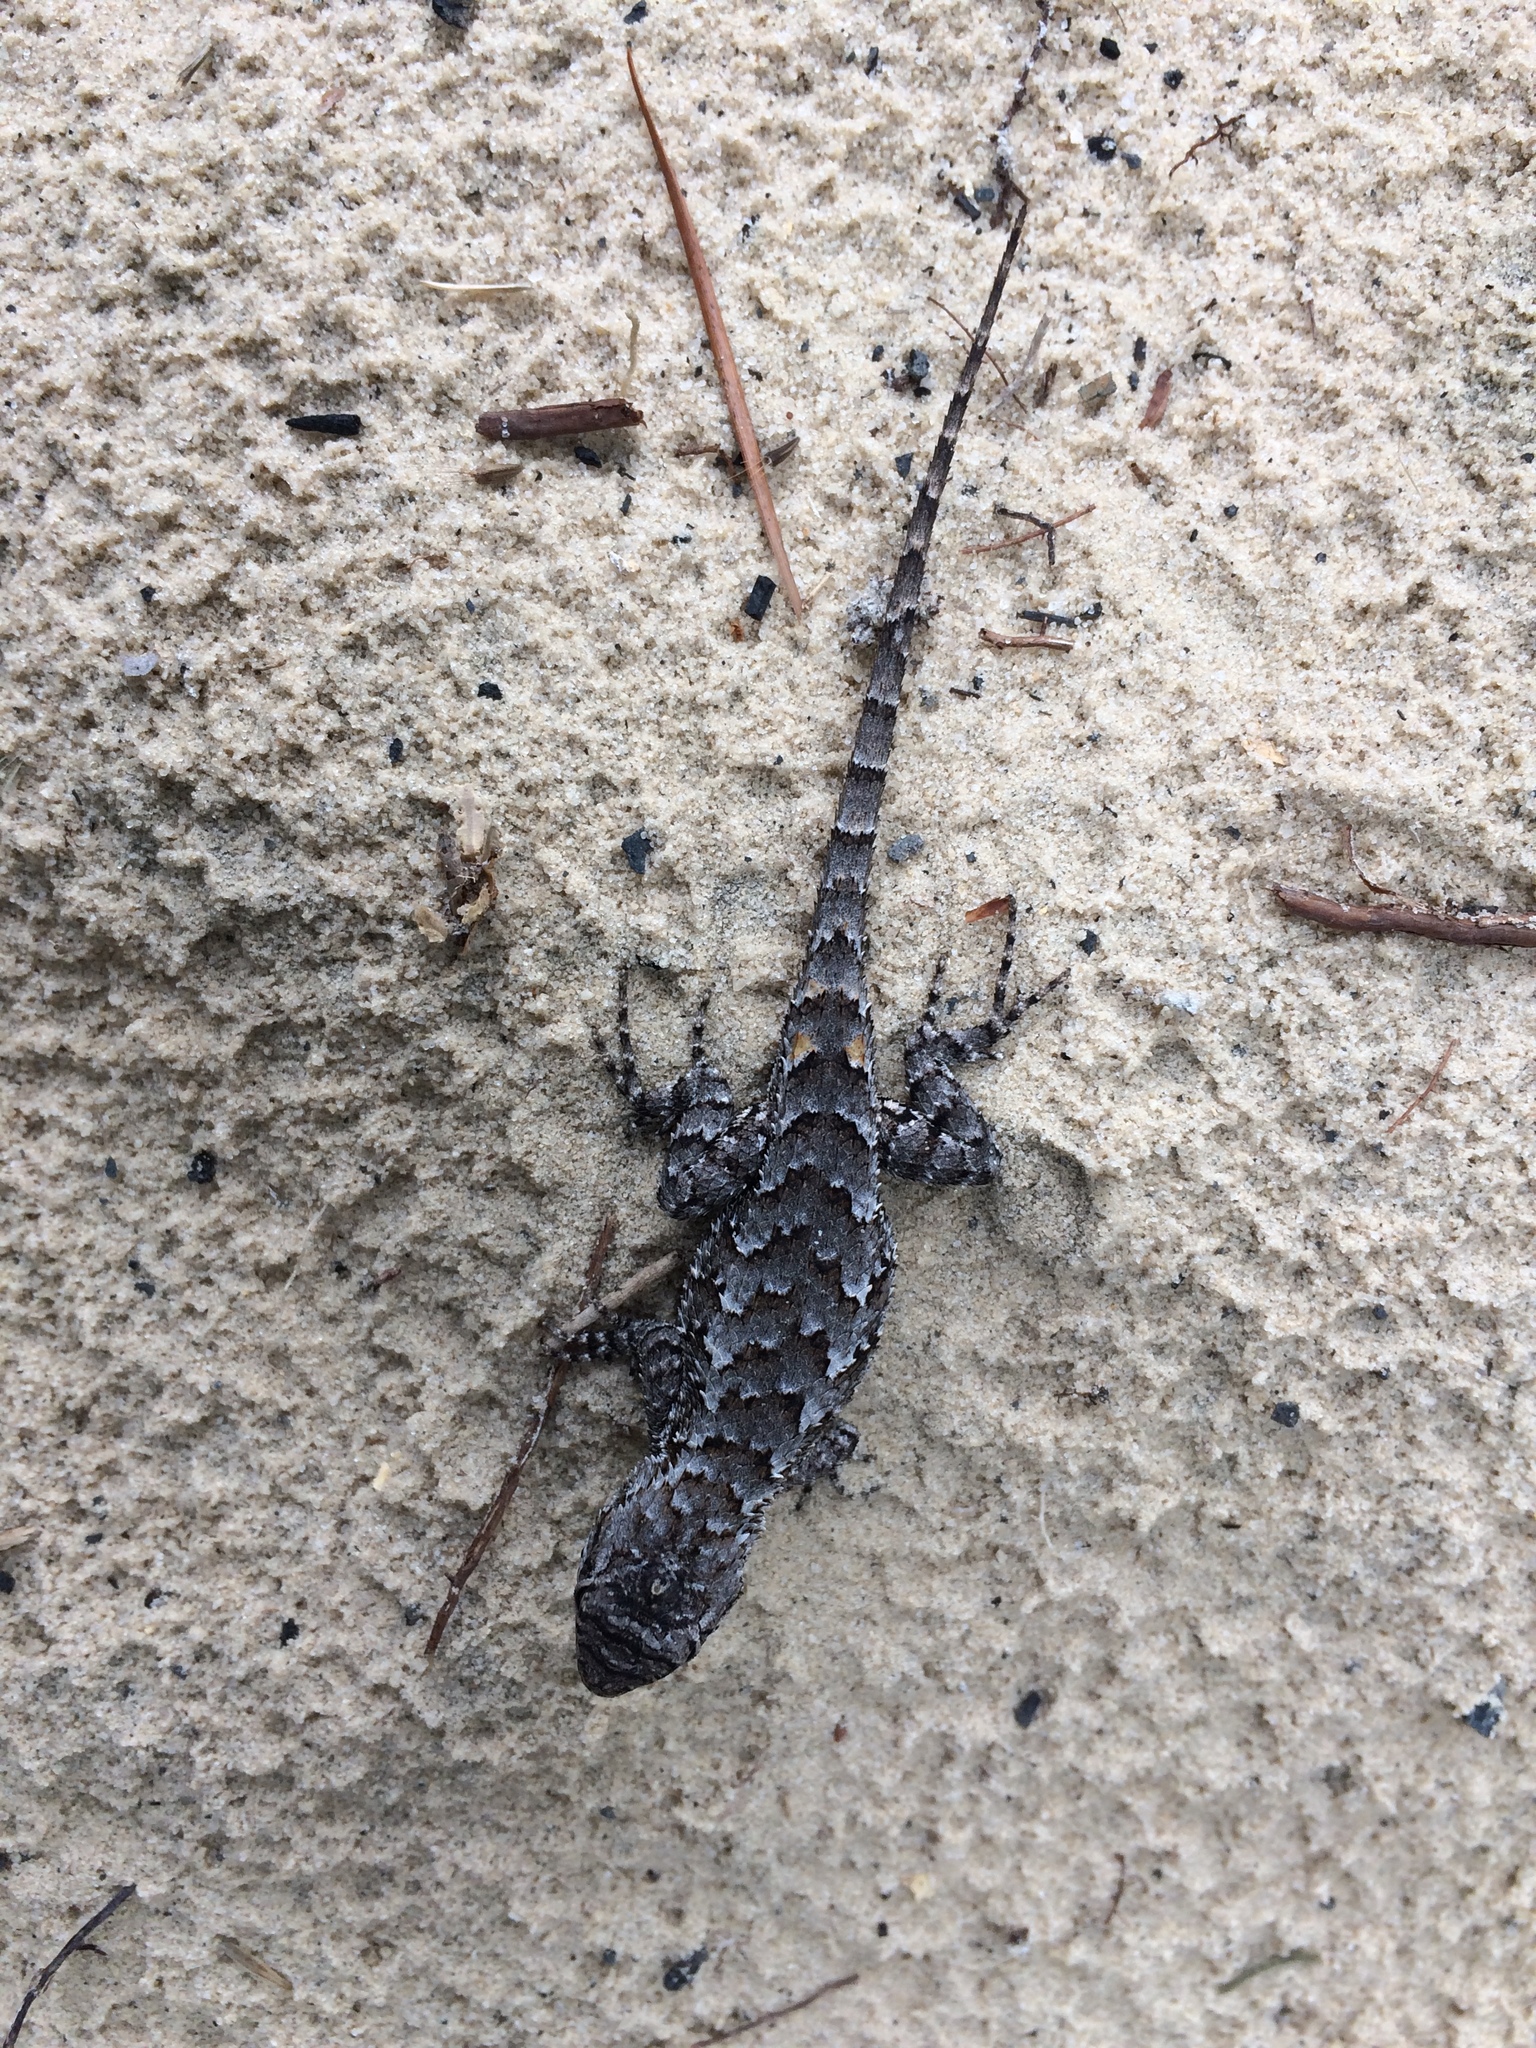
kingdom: Animalia
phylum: Chordata
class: Squamata
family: Phrynosomatidae
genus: Sceloporus
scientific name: Sceloporus undulatus
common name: Eastern fence lizard
